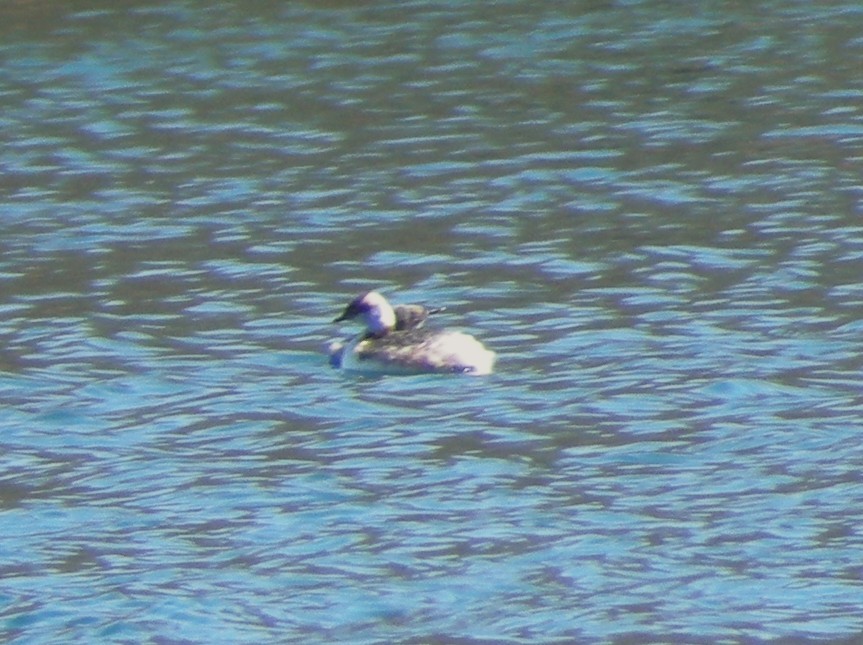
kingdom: Animalia
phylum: Chordata
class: Aves
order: Podicipediformes
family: Podicipedidae
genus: Podiceps
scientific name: Podiceps auritus
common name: Horned grebe
